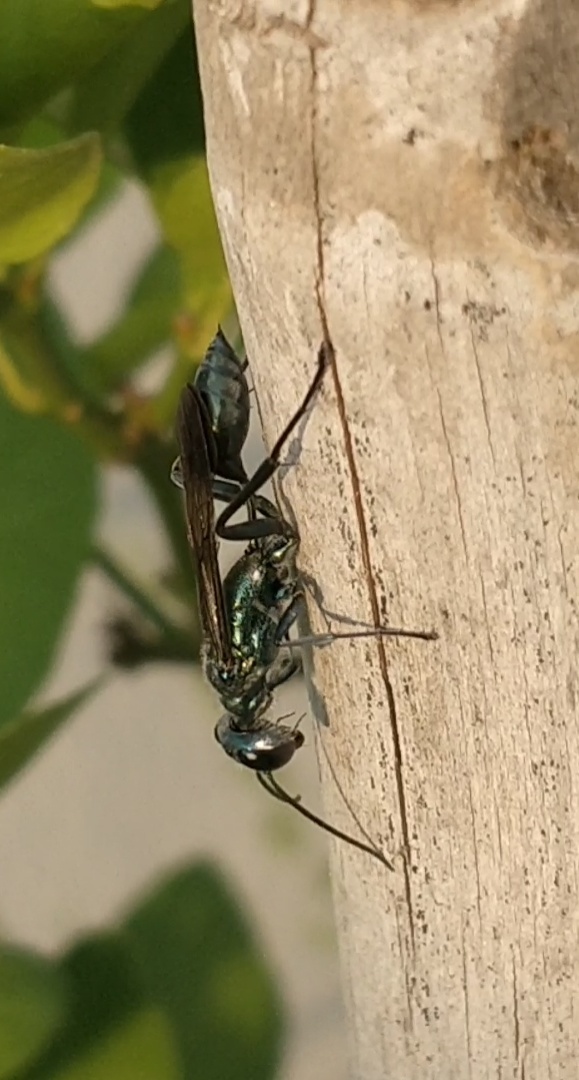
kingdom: Animalia
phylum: Arthropoda
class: Insecta
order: Hymenoptera
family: Sphecidae
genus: Chalybion
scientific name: Chalybion bengalense
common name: Mud dauber
